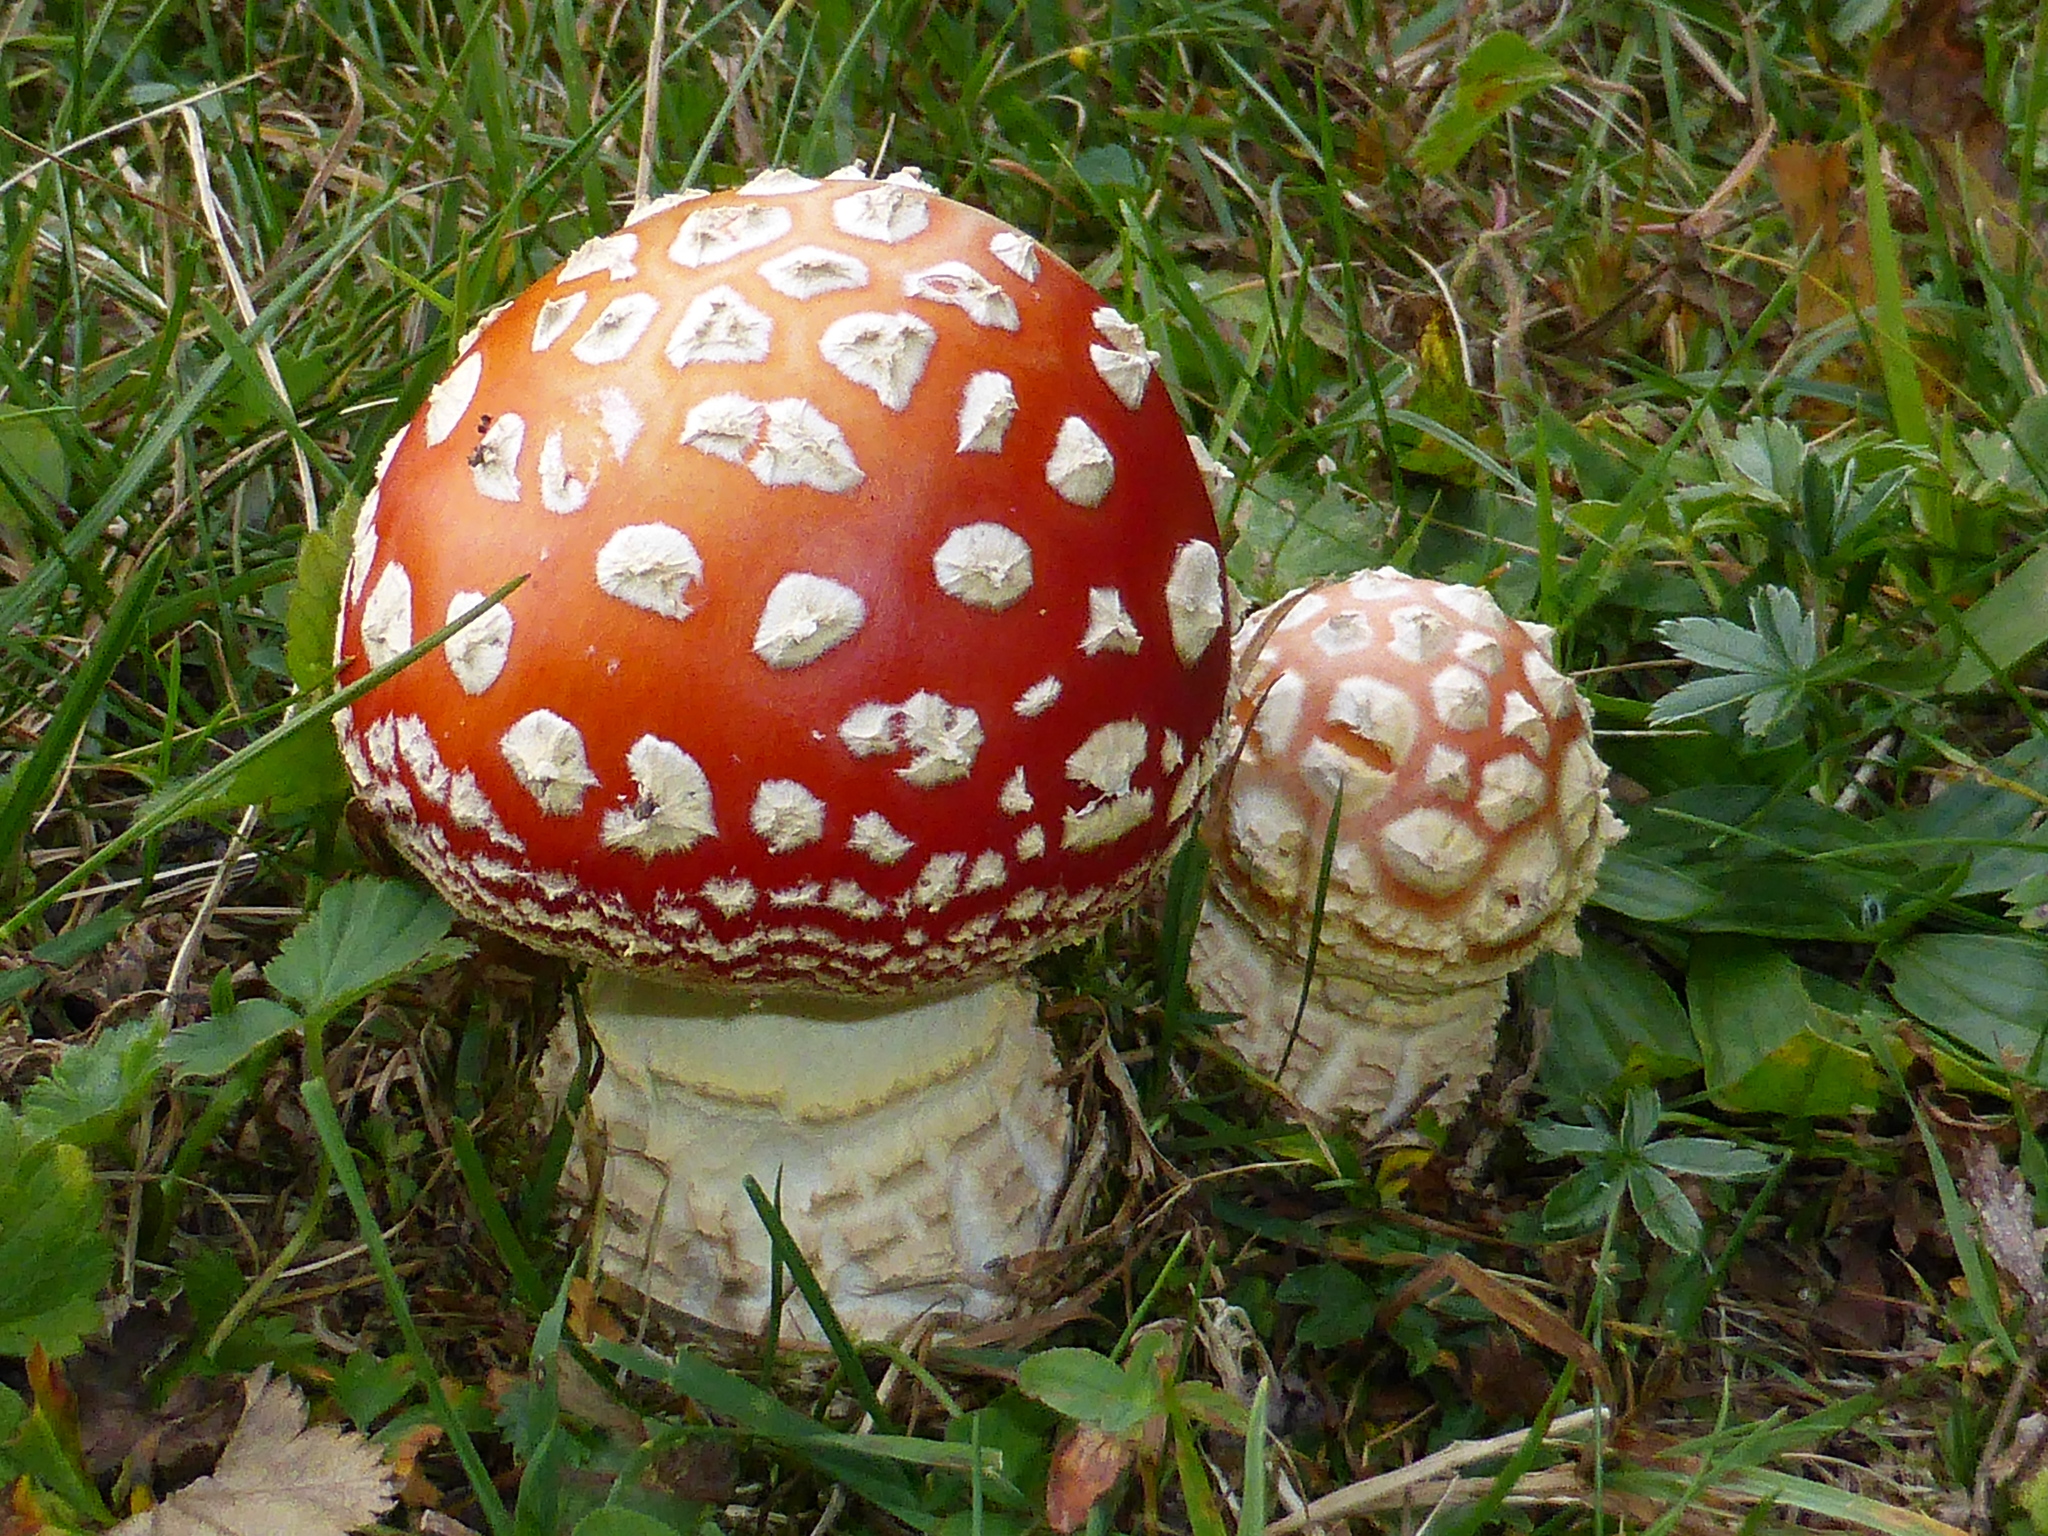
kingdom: Fungi
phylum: Basidiomycota
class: Agaricomycetes
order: Agaricales
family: Amanitaceae
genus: Amanita
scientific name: Amanita muscaria
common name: Fly agaric
